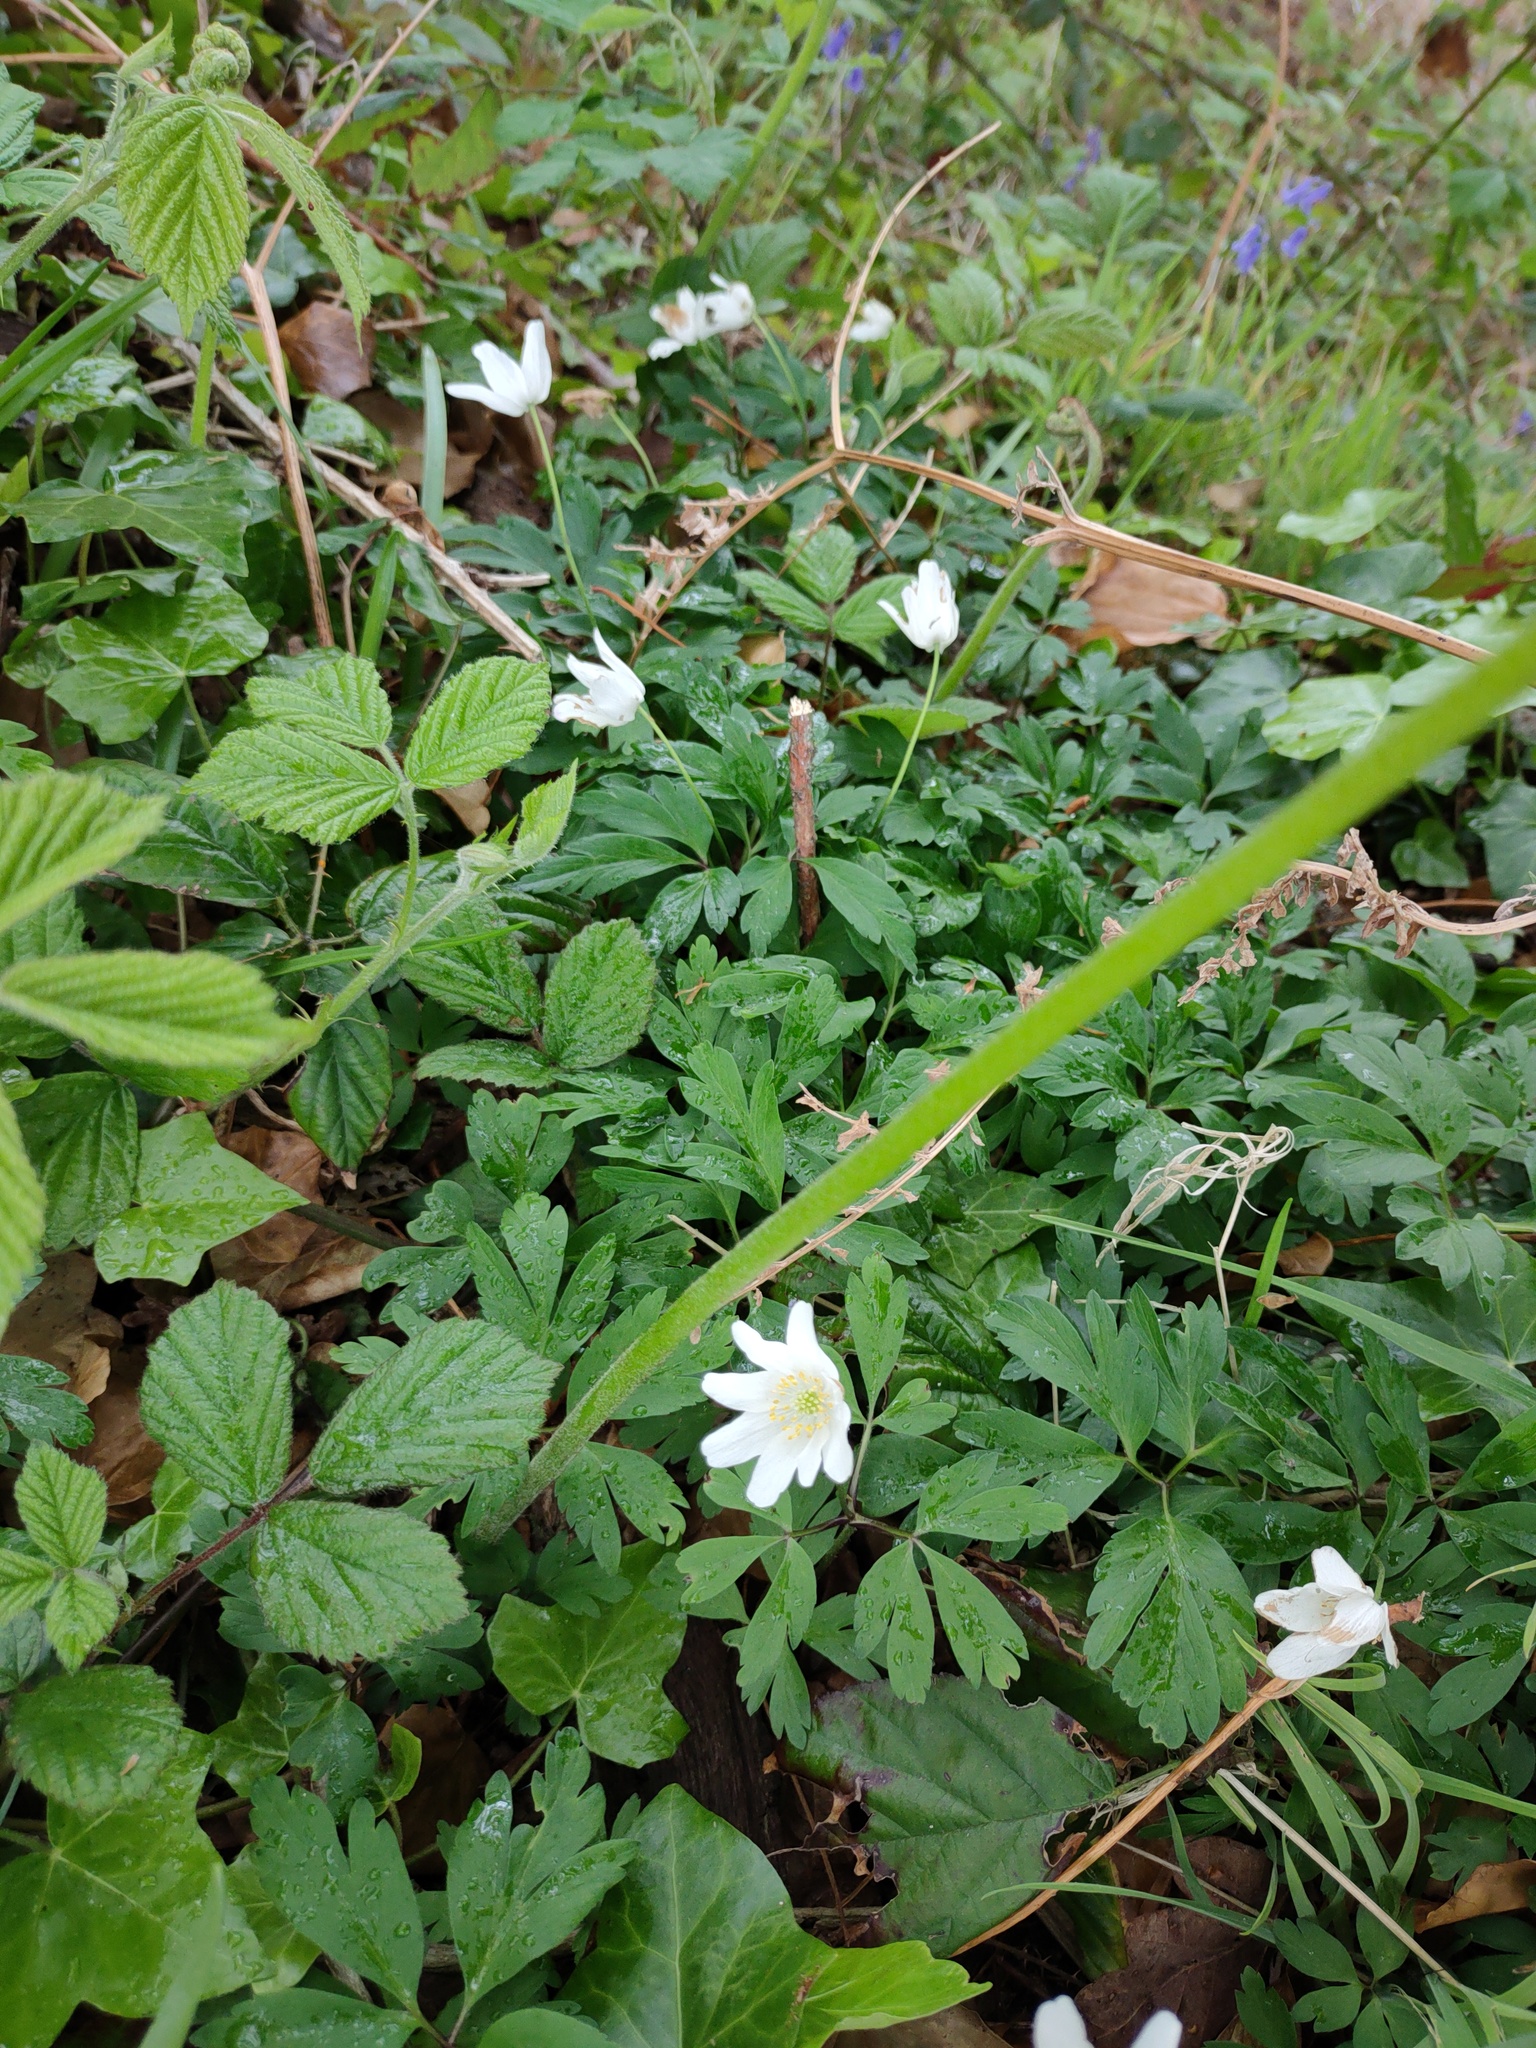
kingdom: Plantae
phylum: Tracheophyta
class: Magnoliopsida
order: Ranunculales
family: Ranunculaceae
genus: Anemone
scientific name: Anemone nemorosa
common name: Wood anemone
